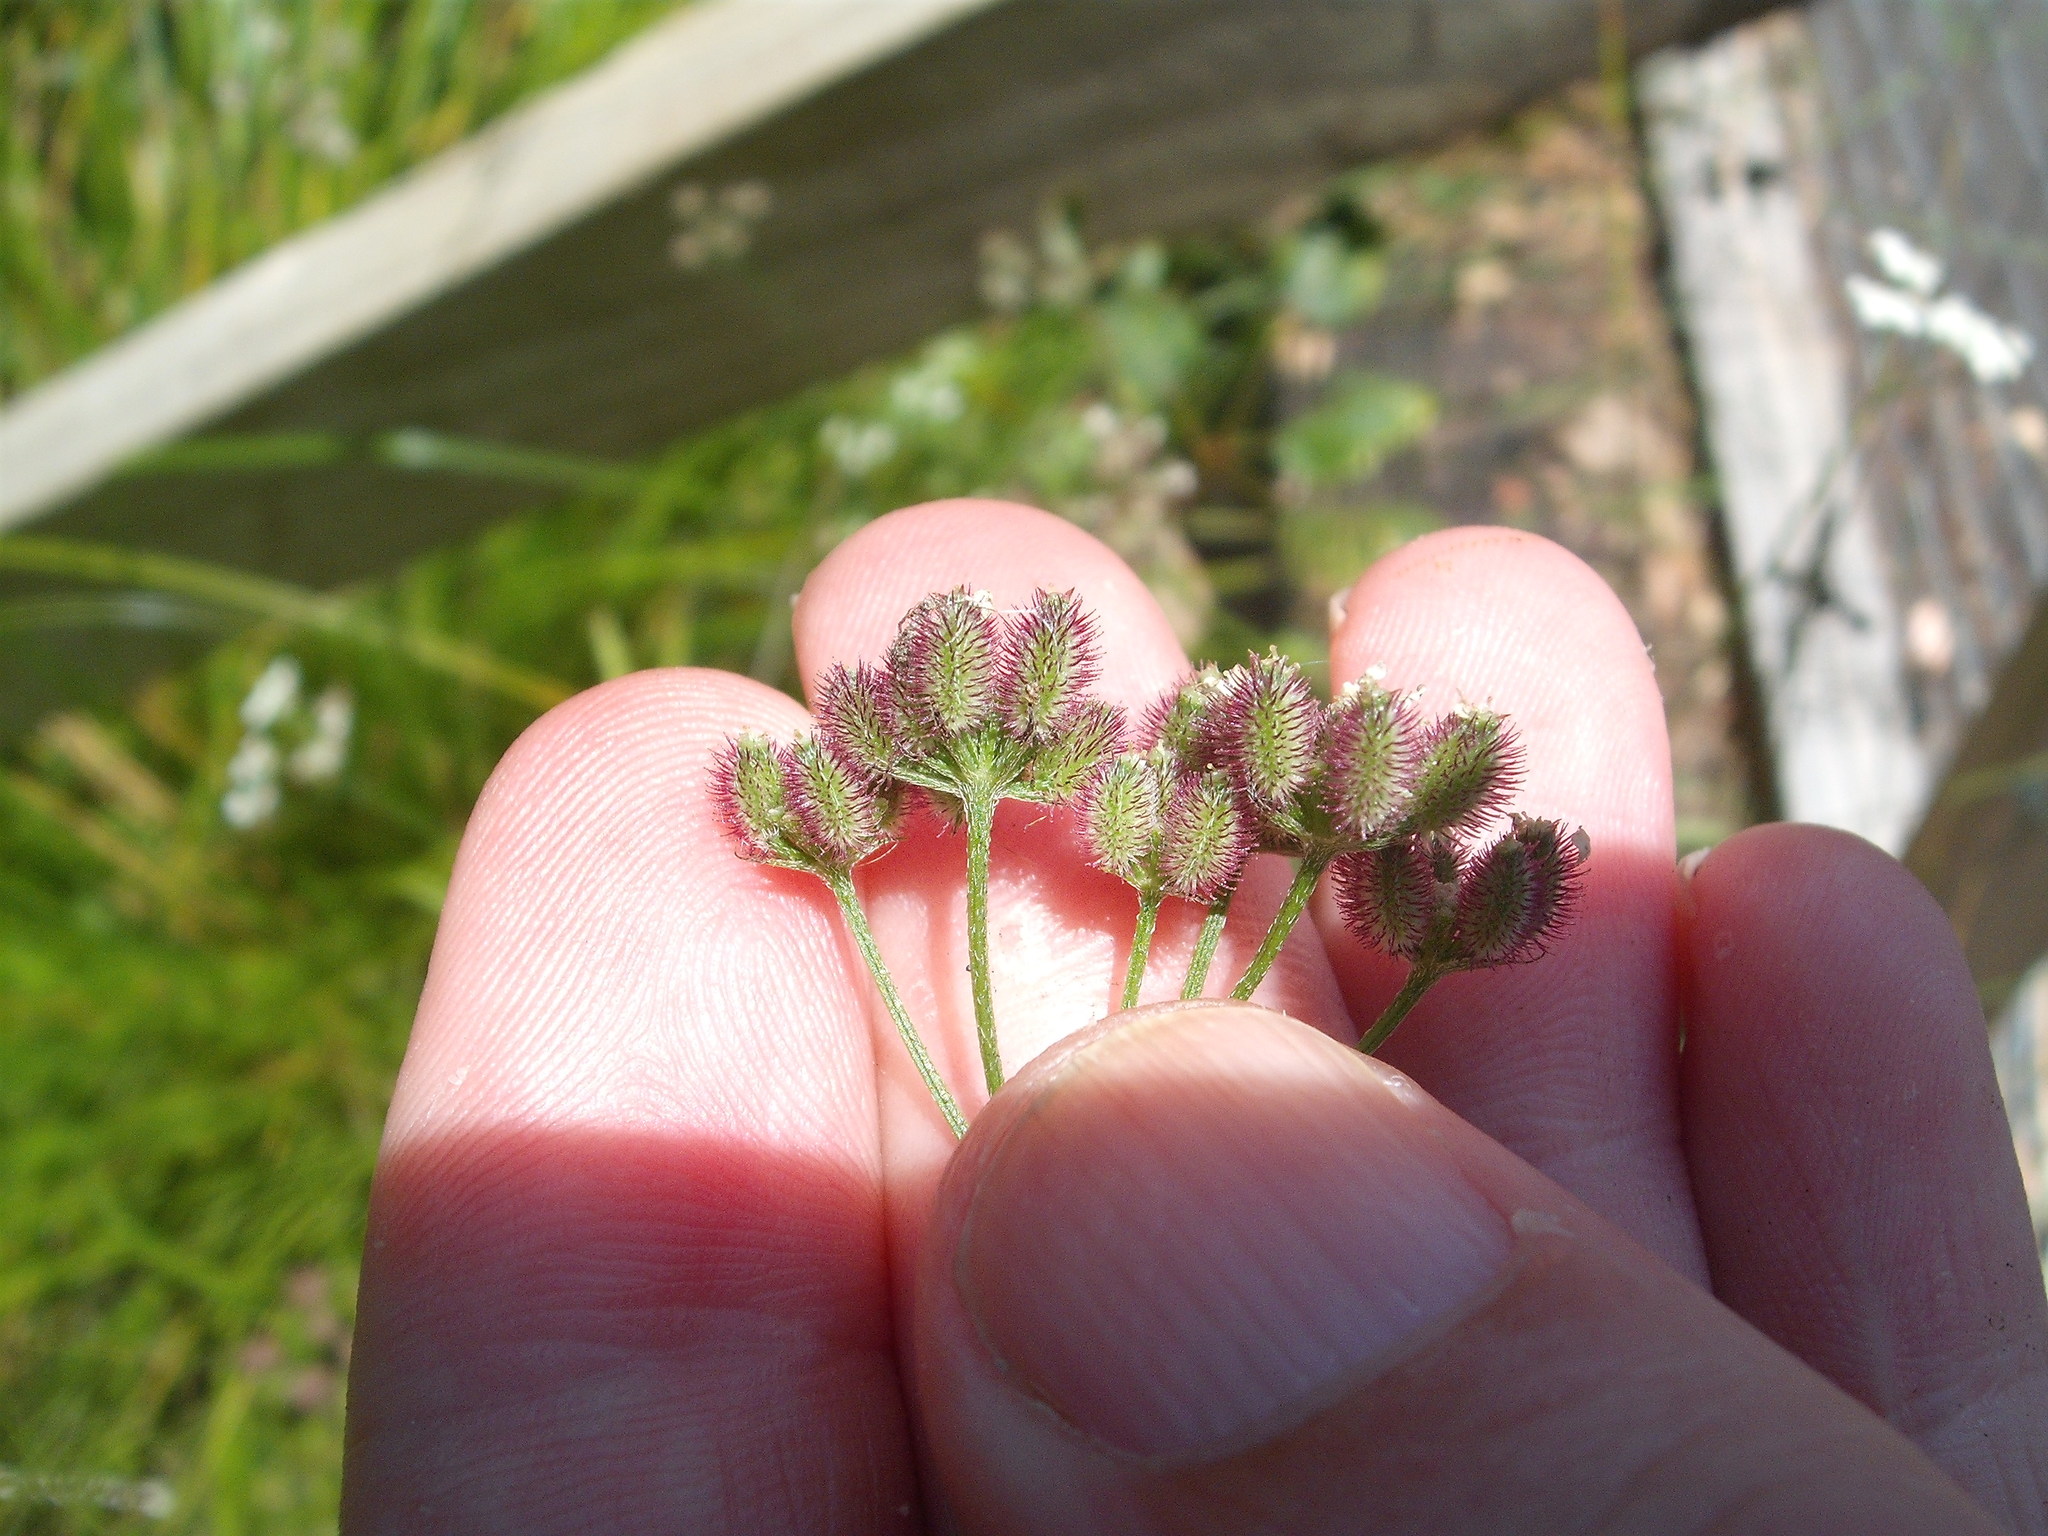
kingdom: Plantae
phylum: Tracheophyta
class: Magnoliopsida
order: Apiales
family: Apiaceae
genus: Torilis
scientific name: Torilis arvensis
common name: Spreading hedge-parsley
